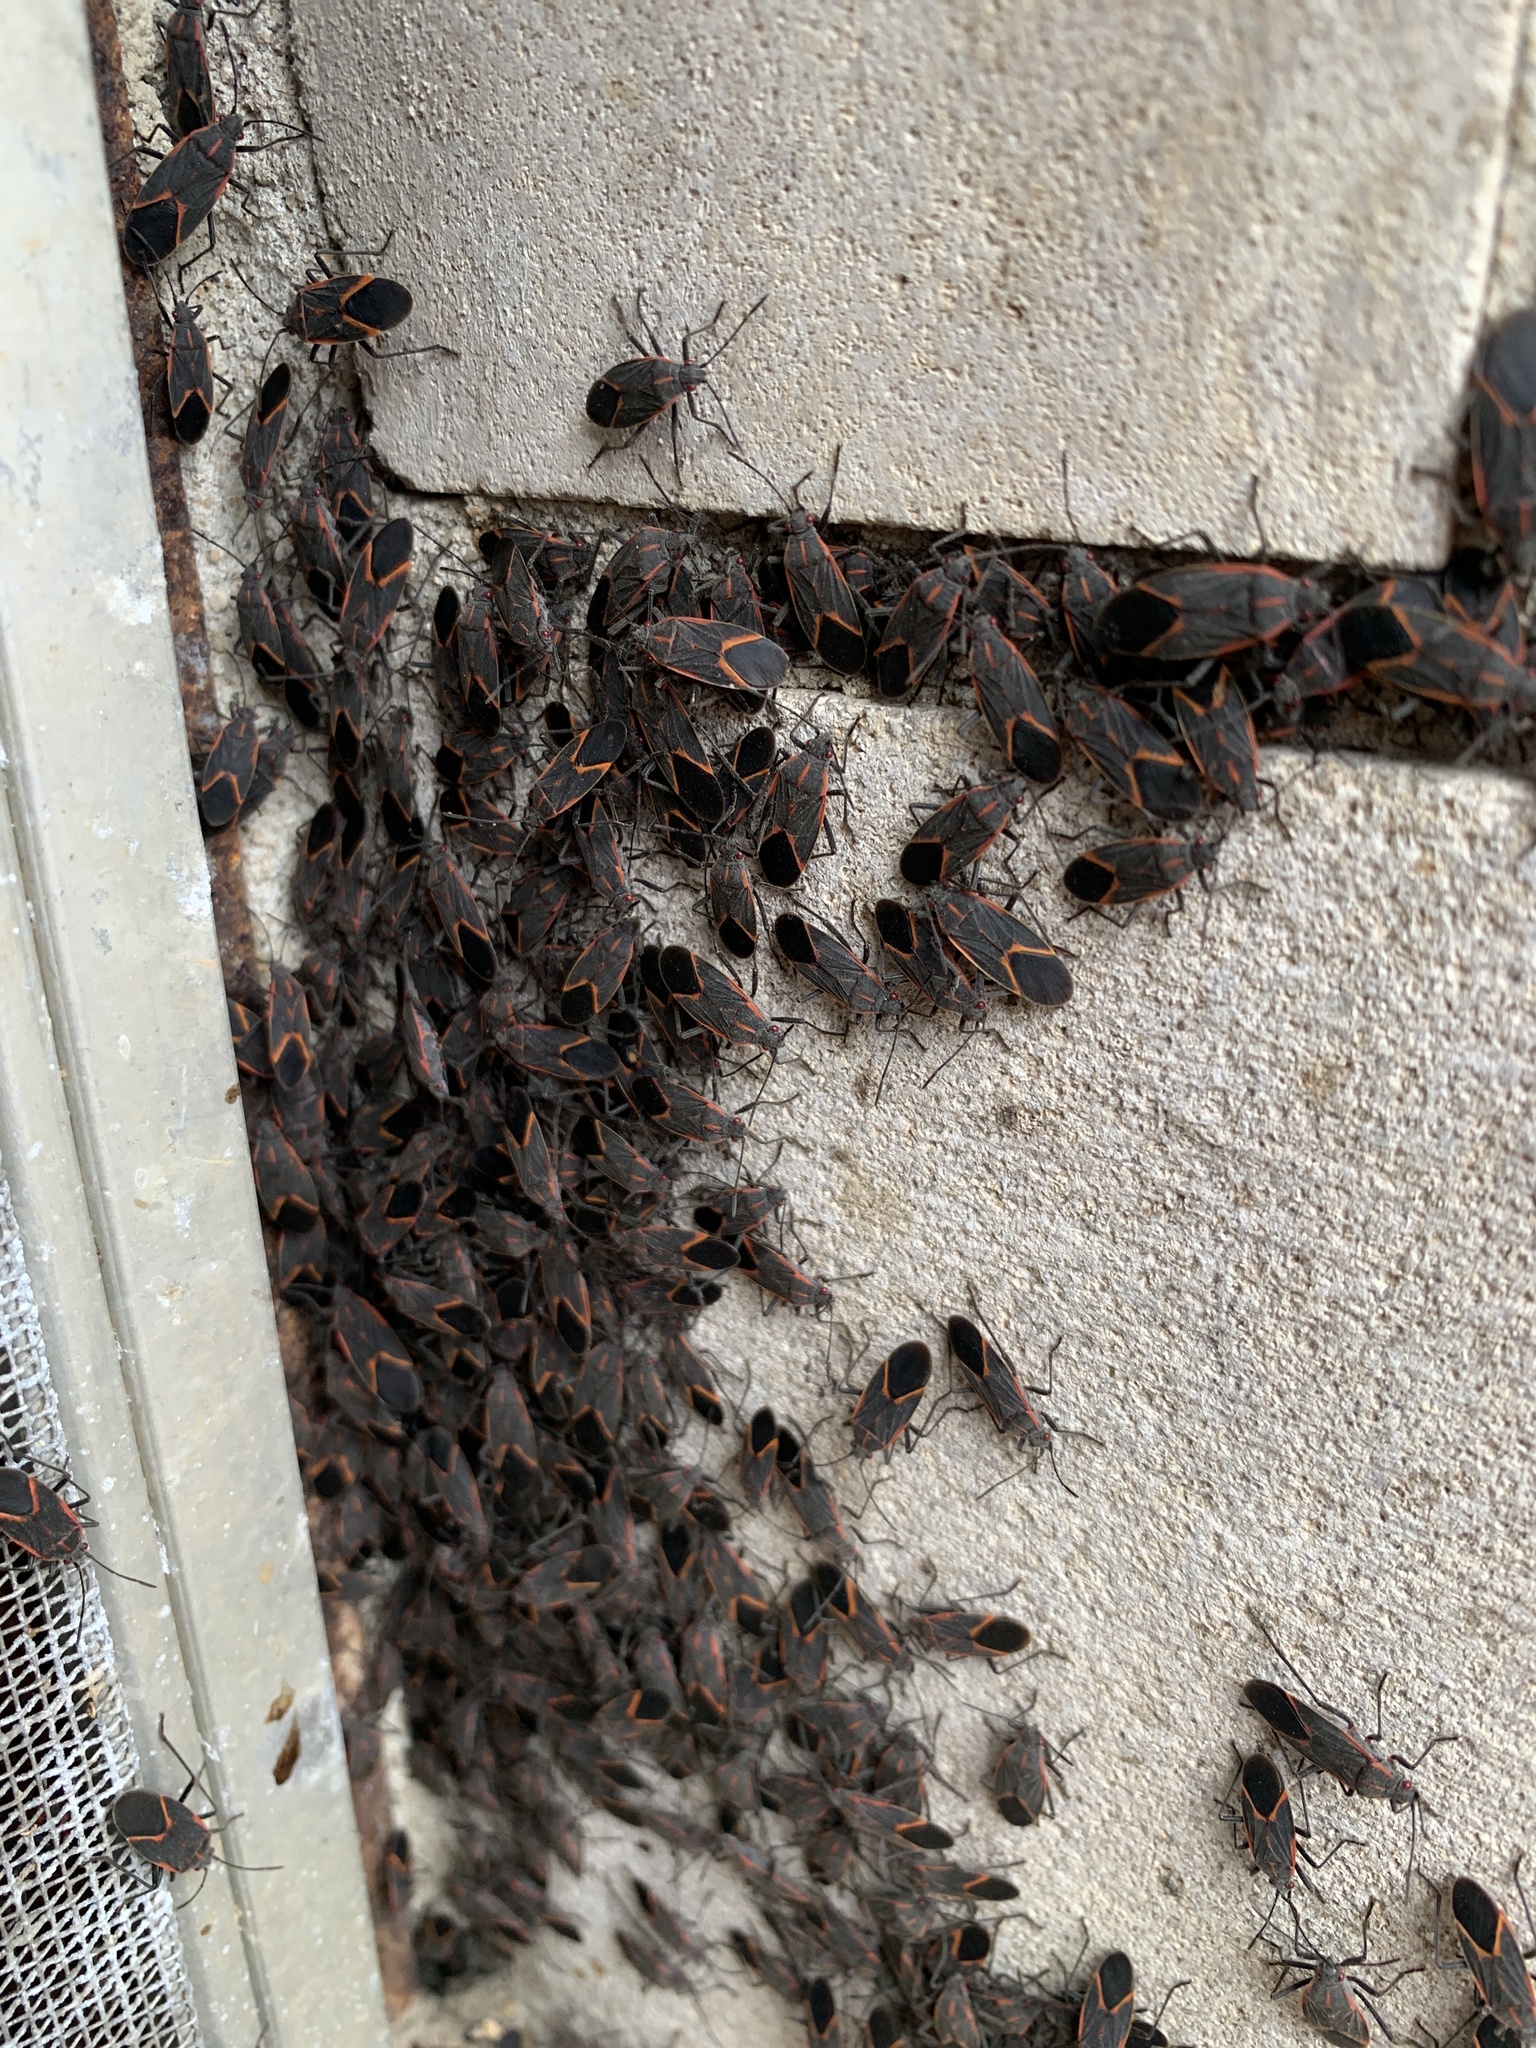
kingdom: Animalia
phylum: Arthropoda
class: Insecta
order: Hemiptera
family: Rhopalidae
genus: Boisea
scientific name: Boisea trivittata
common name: Boxelder bug
